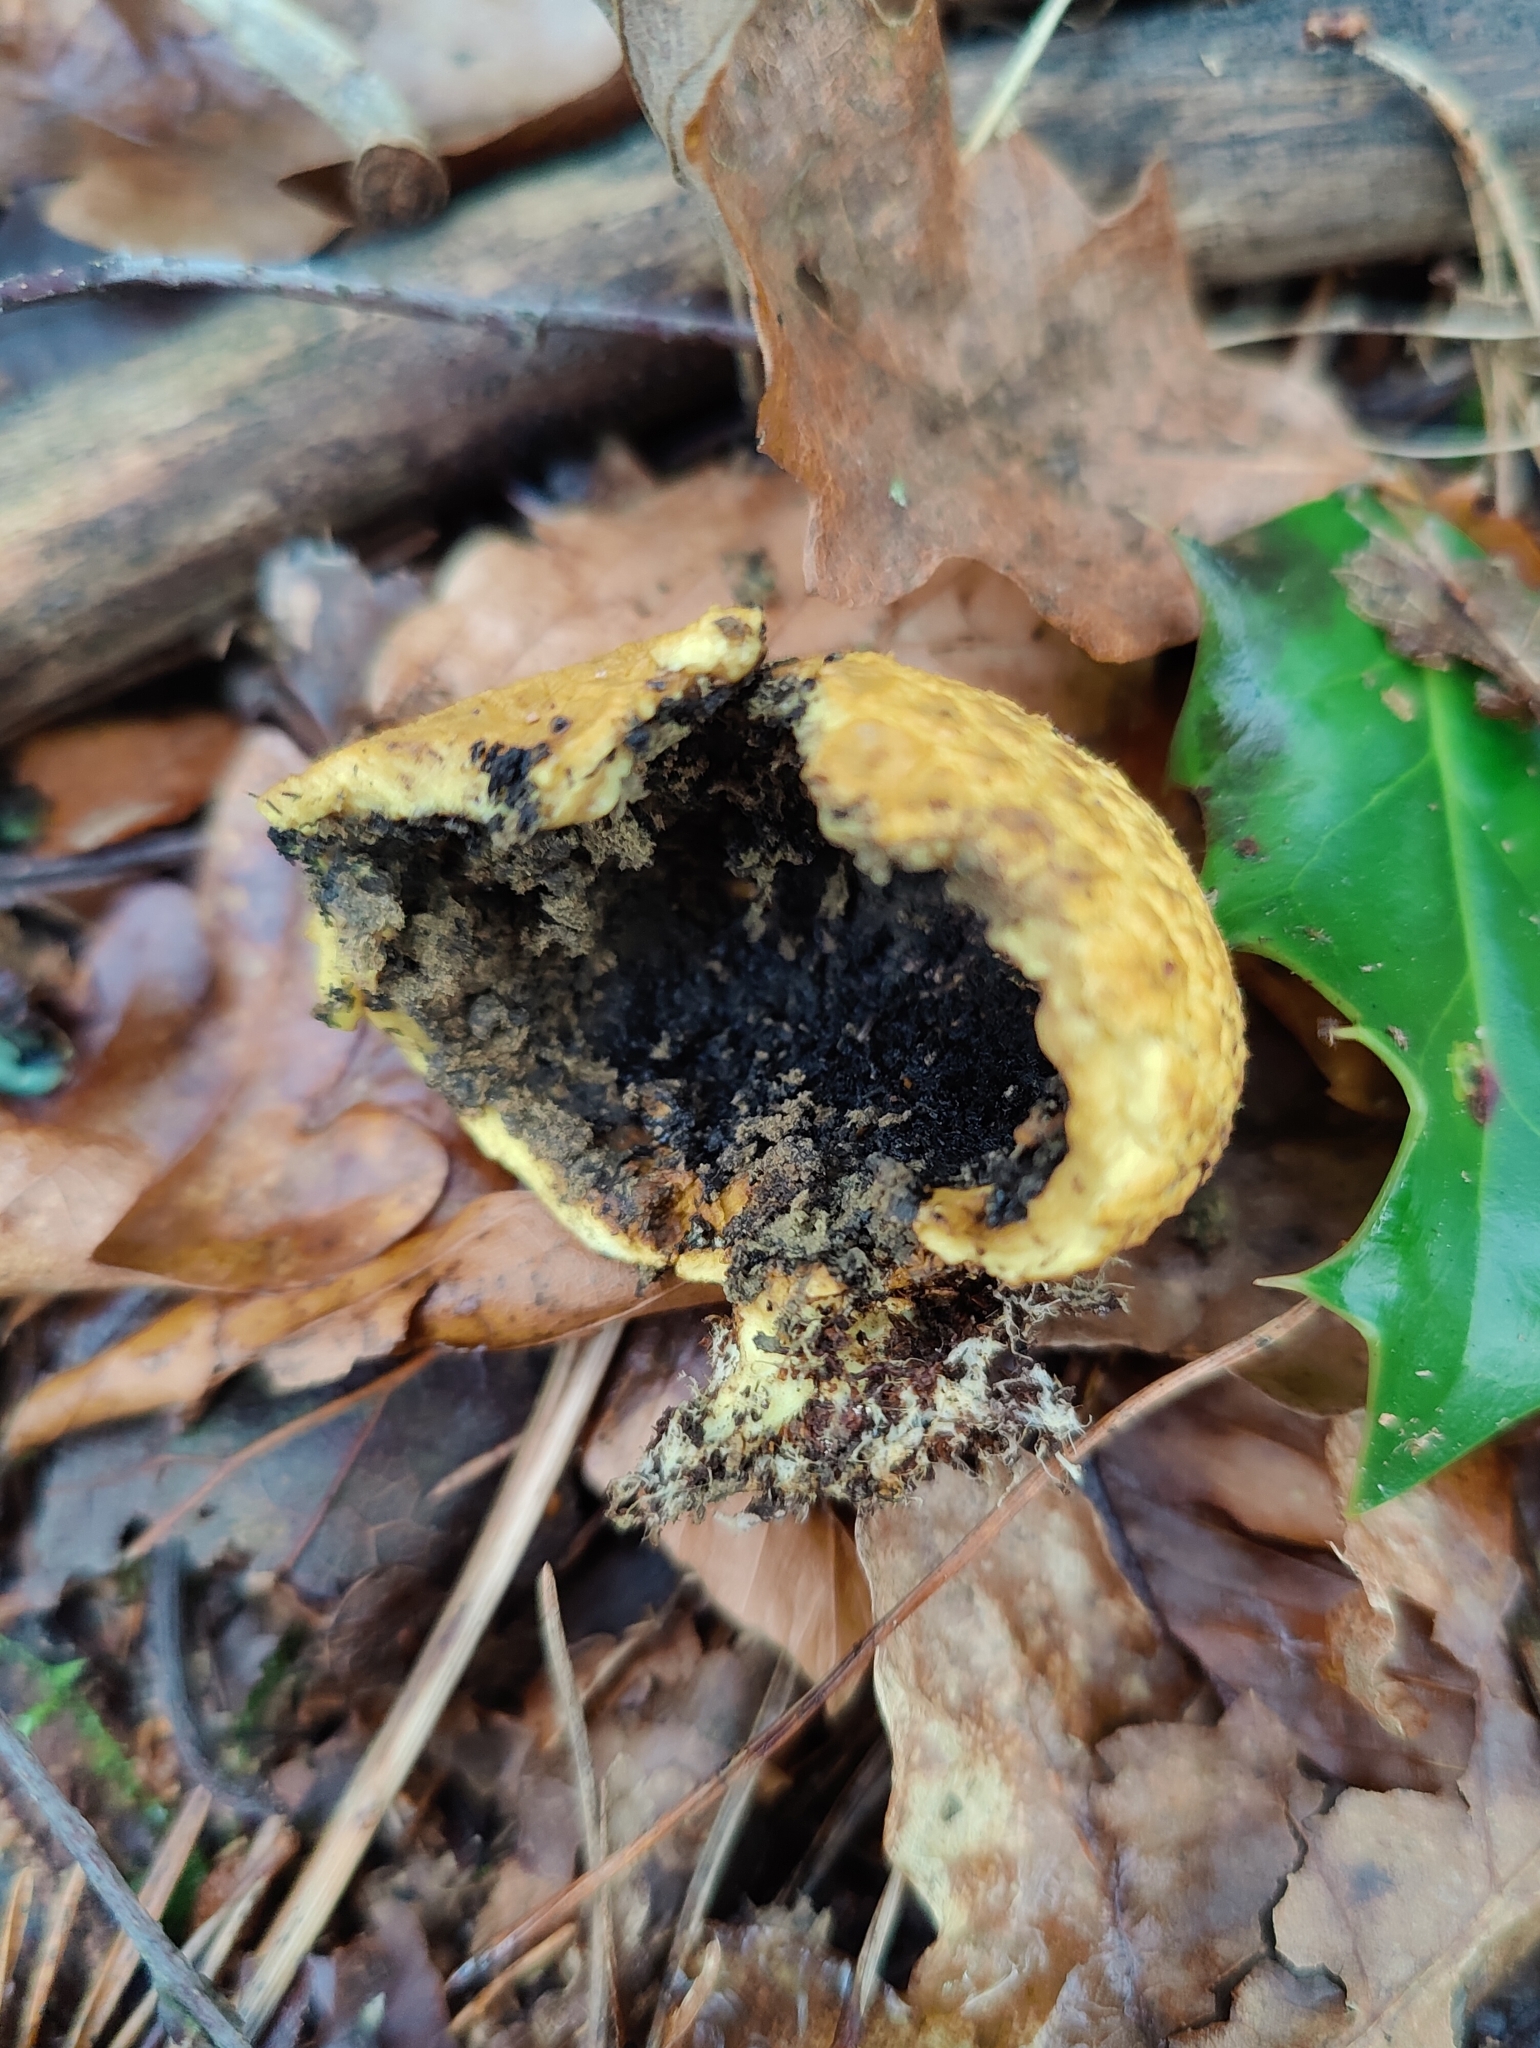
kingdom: Fungi
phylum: Basidiomycota
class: Agaricomycetes
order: Boletales
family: Sclerodermataceae
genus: Scleroderma
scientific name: Scleroderma citrinum
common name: Common earthball
